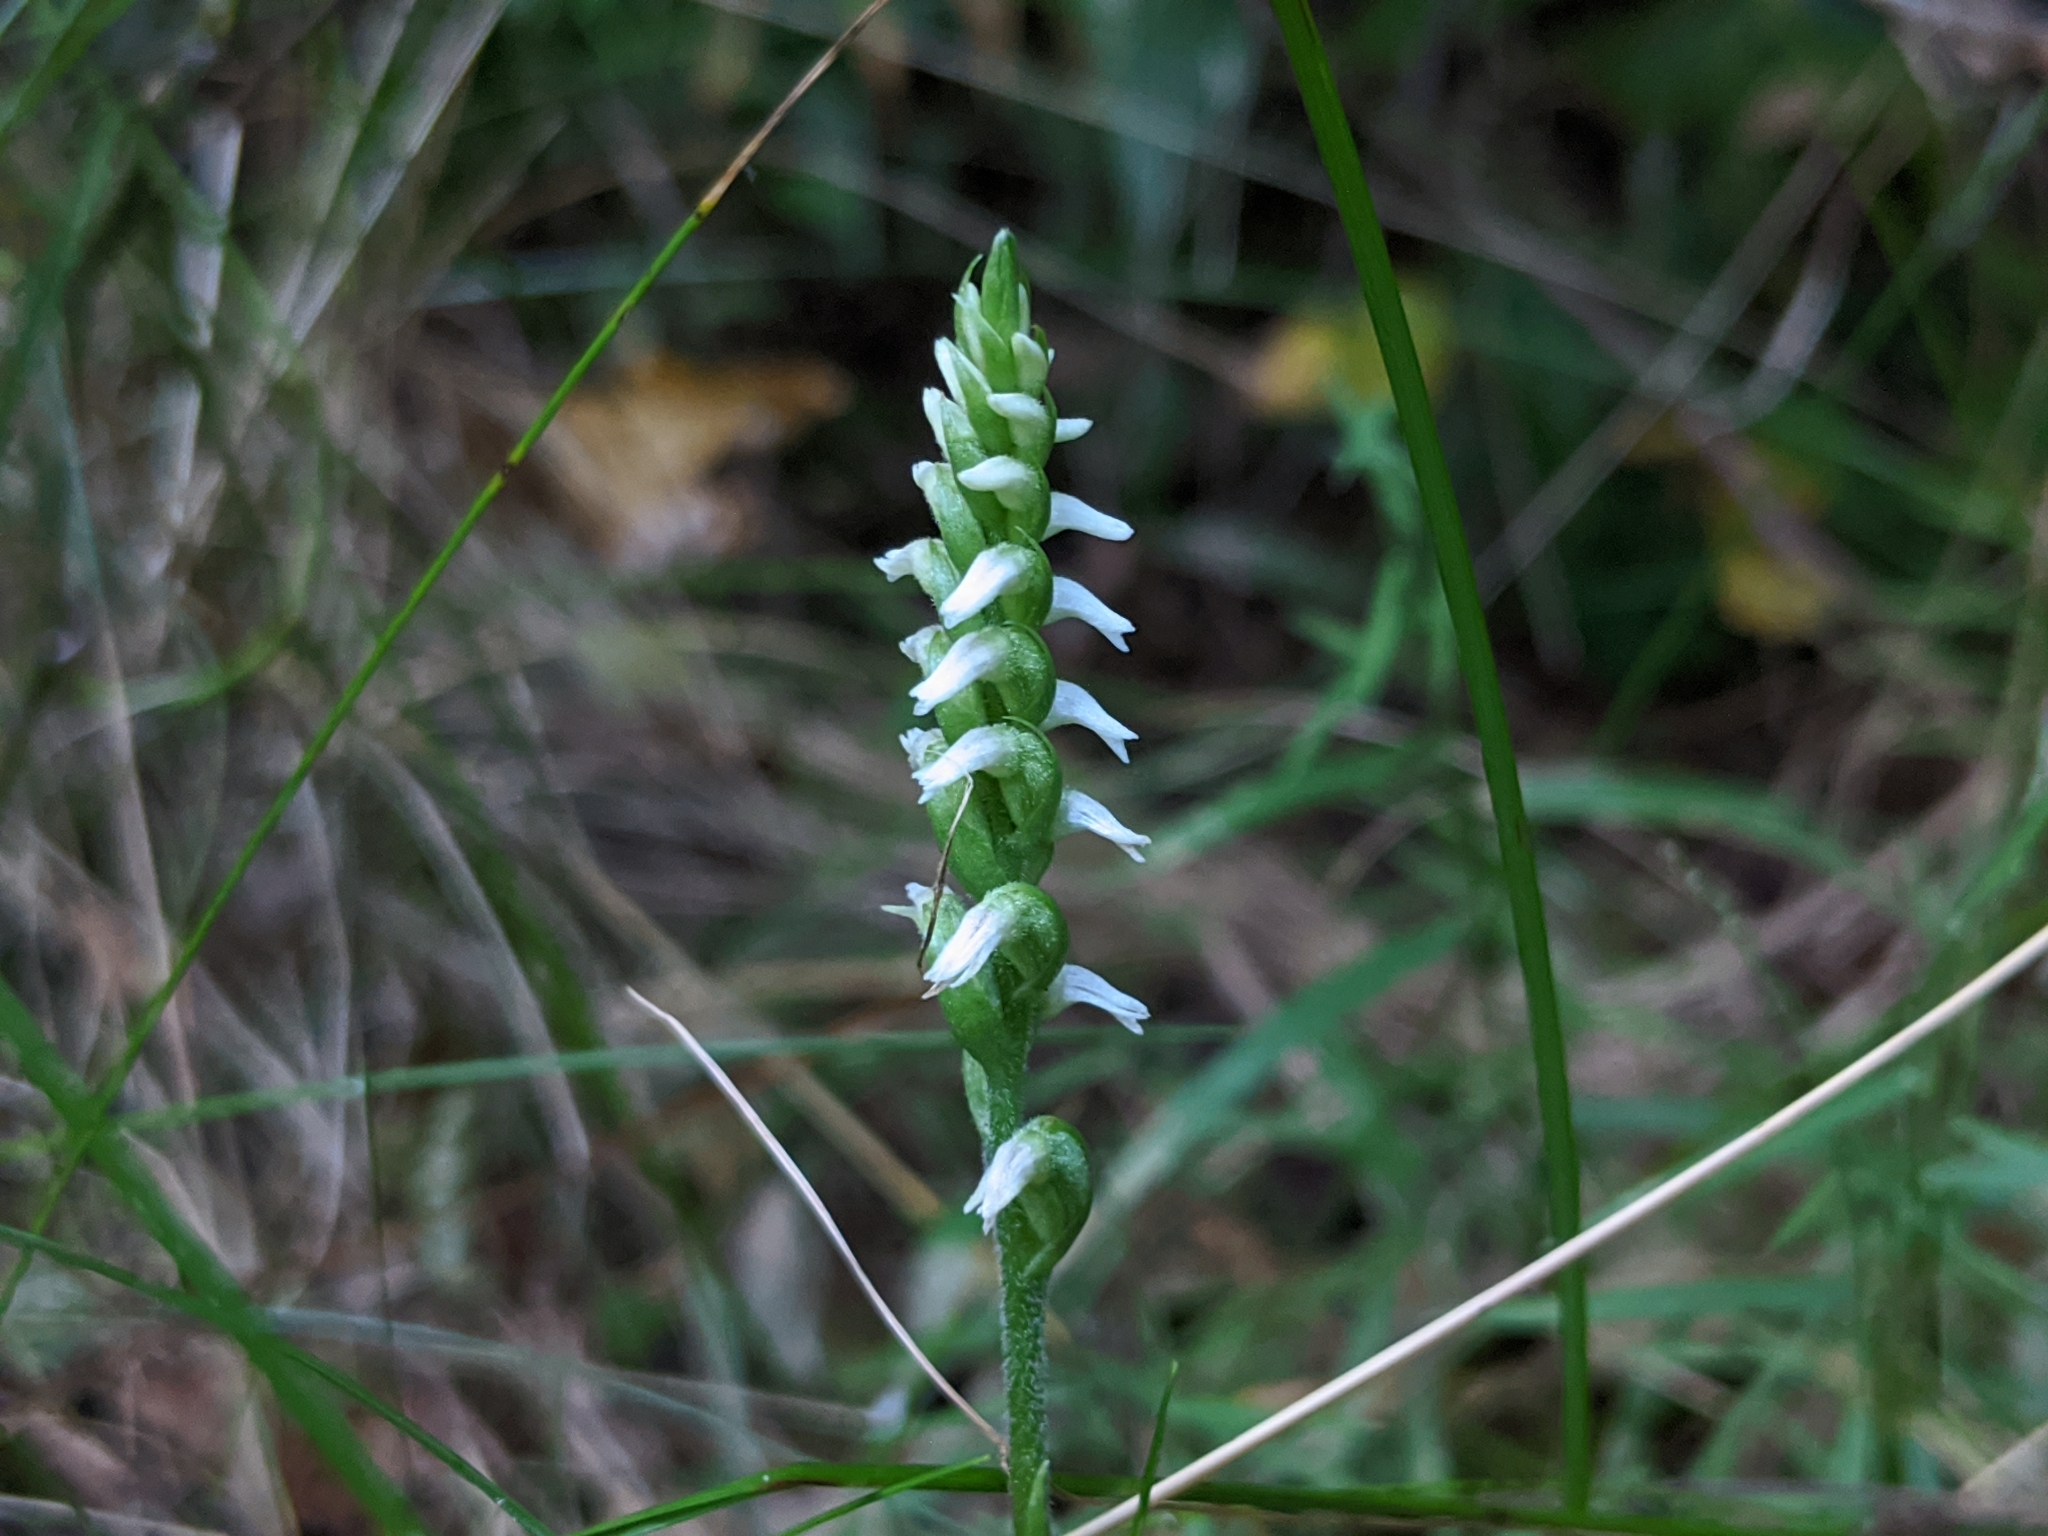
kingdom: Plantae
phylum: Tracheophyta
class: Liliopsida
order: Asparagales
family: Orchidaceae
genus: Spiranthes
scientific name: Spiranthes ovalis
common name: October ladies'-tresses
